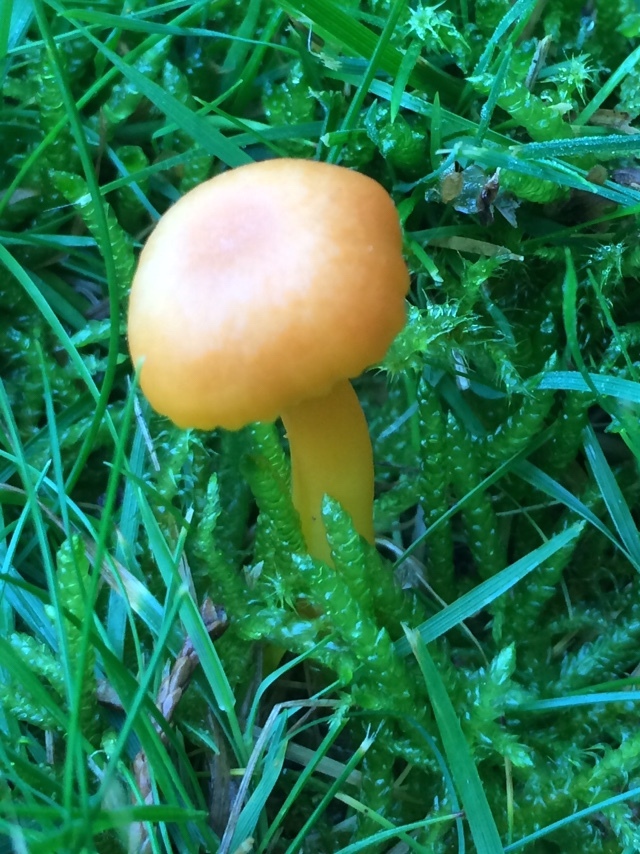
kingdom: Fungi
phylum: Basidiomycota
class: Agaricomycetes
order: Agaricales
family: Hygrophoraceae
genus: Hygrocybe
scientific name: Hygrocybe reidii
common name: Honey waxcap
